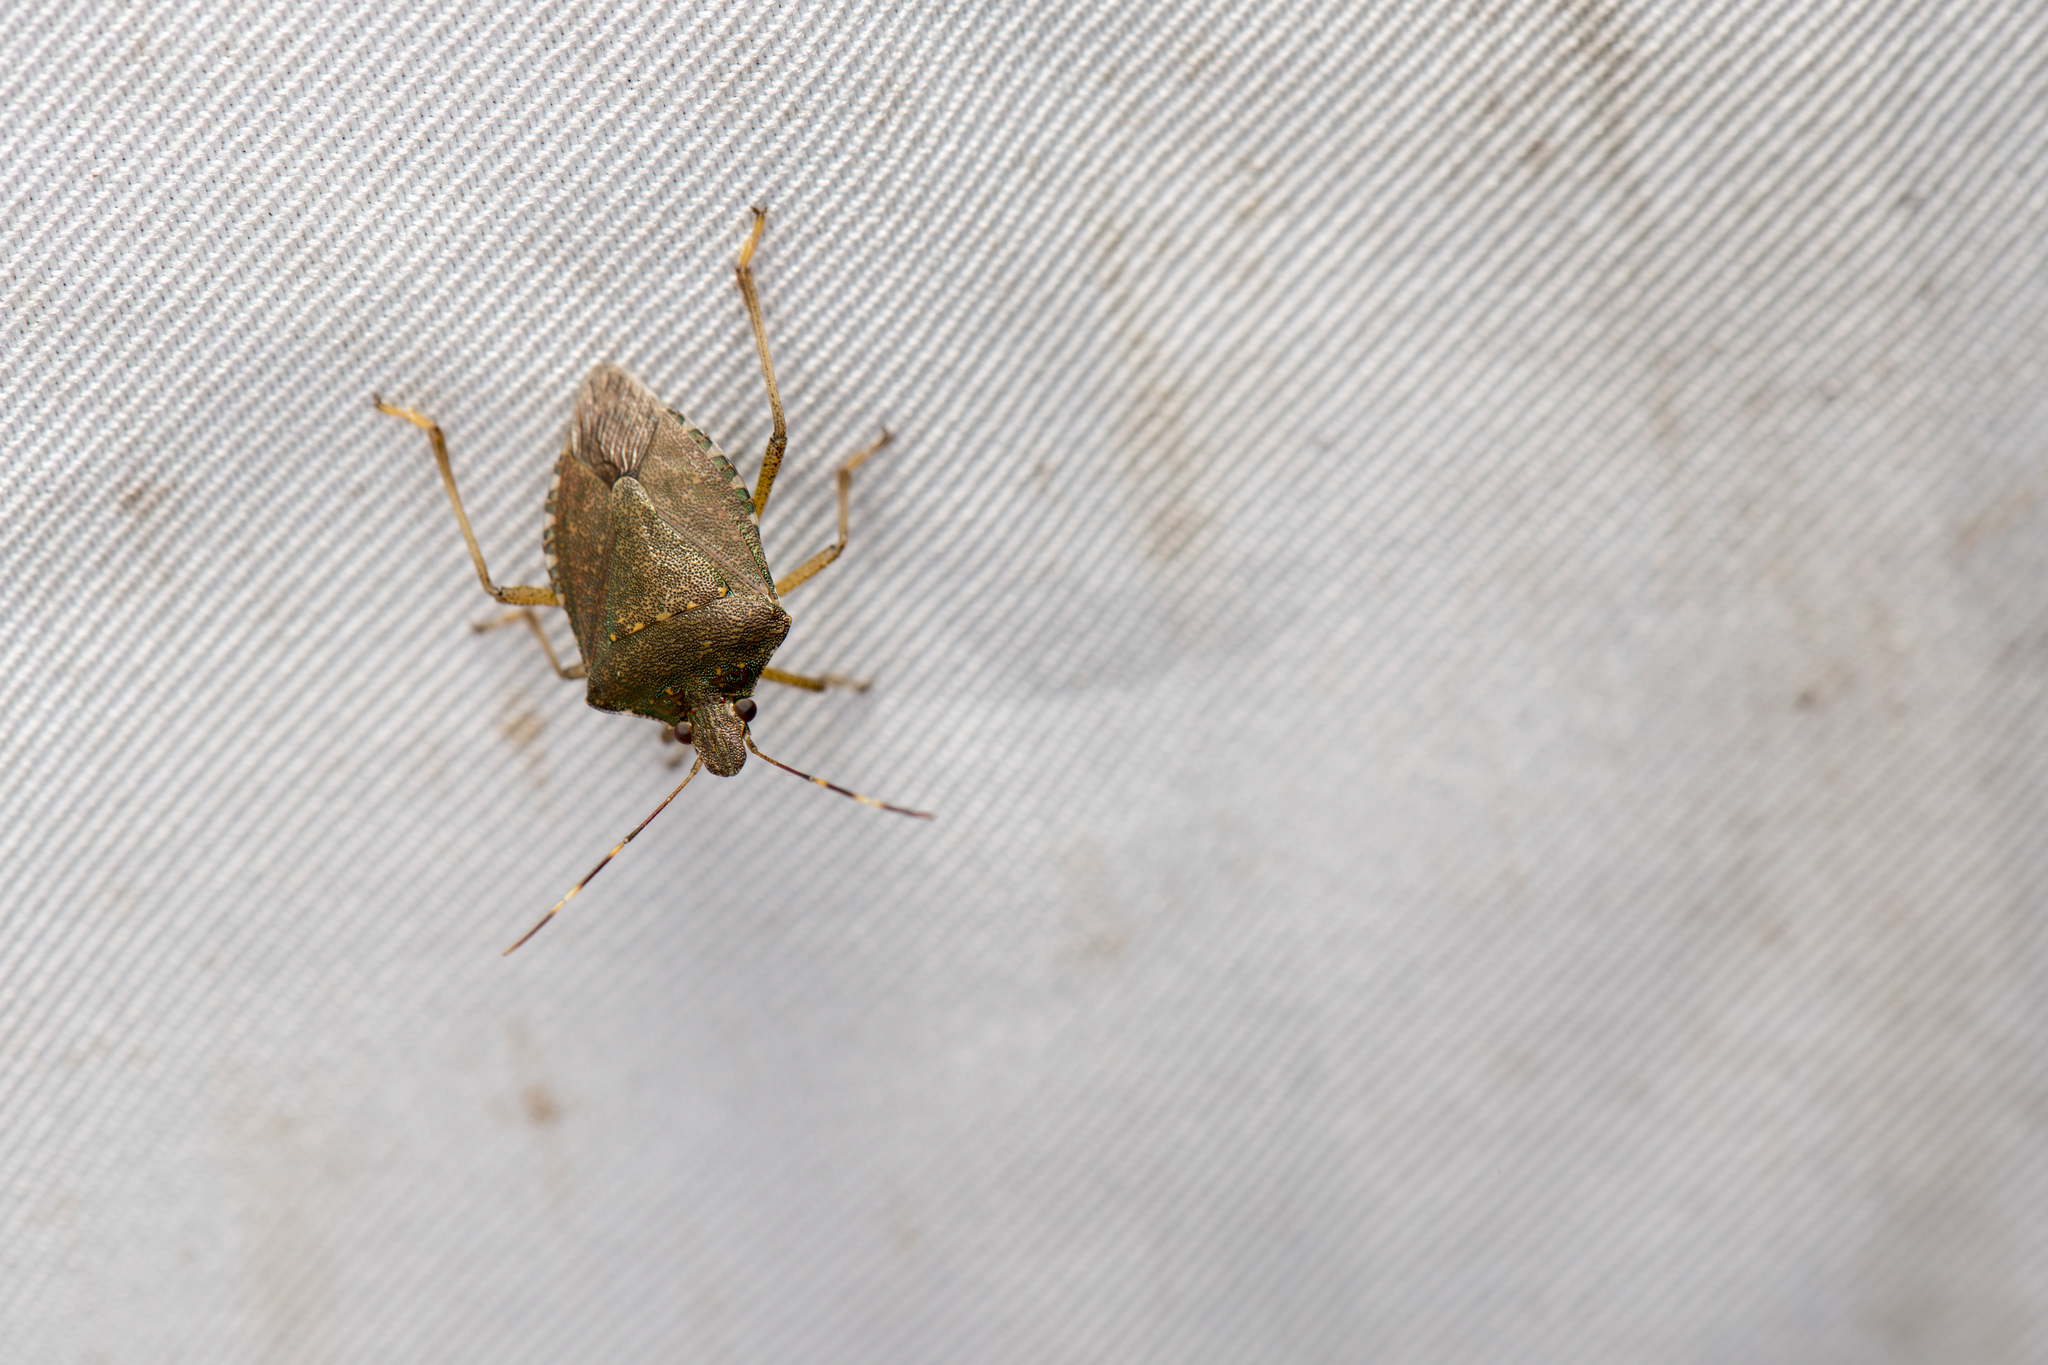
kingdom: Animalia
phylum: Arthropoda
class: Insecta
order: Hemiptera
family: Pentatomidae
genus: Halyomorpha
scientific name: Halyomorpha halys
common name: Brown marmorated stink bug
